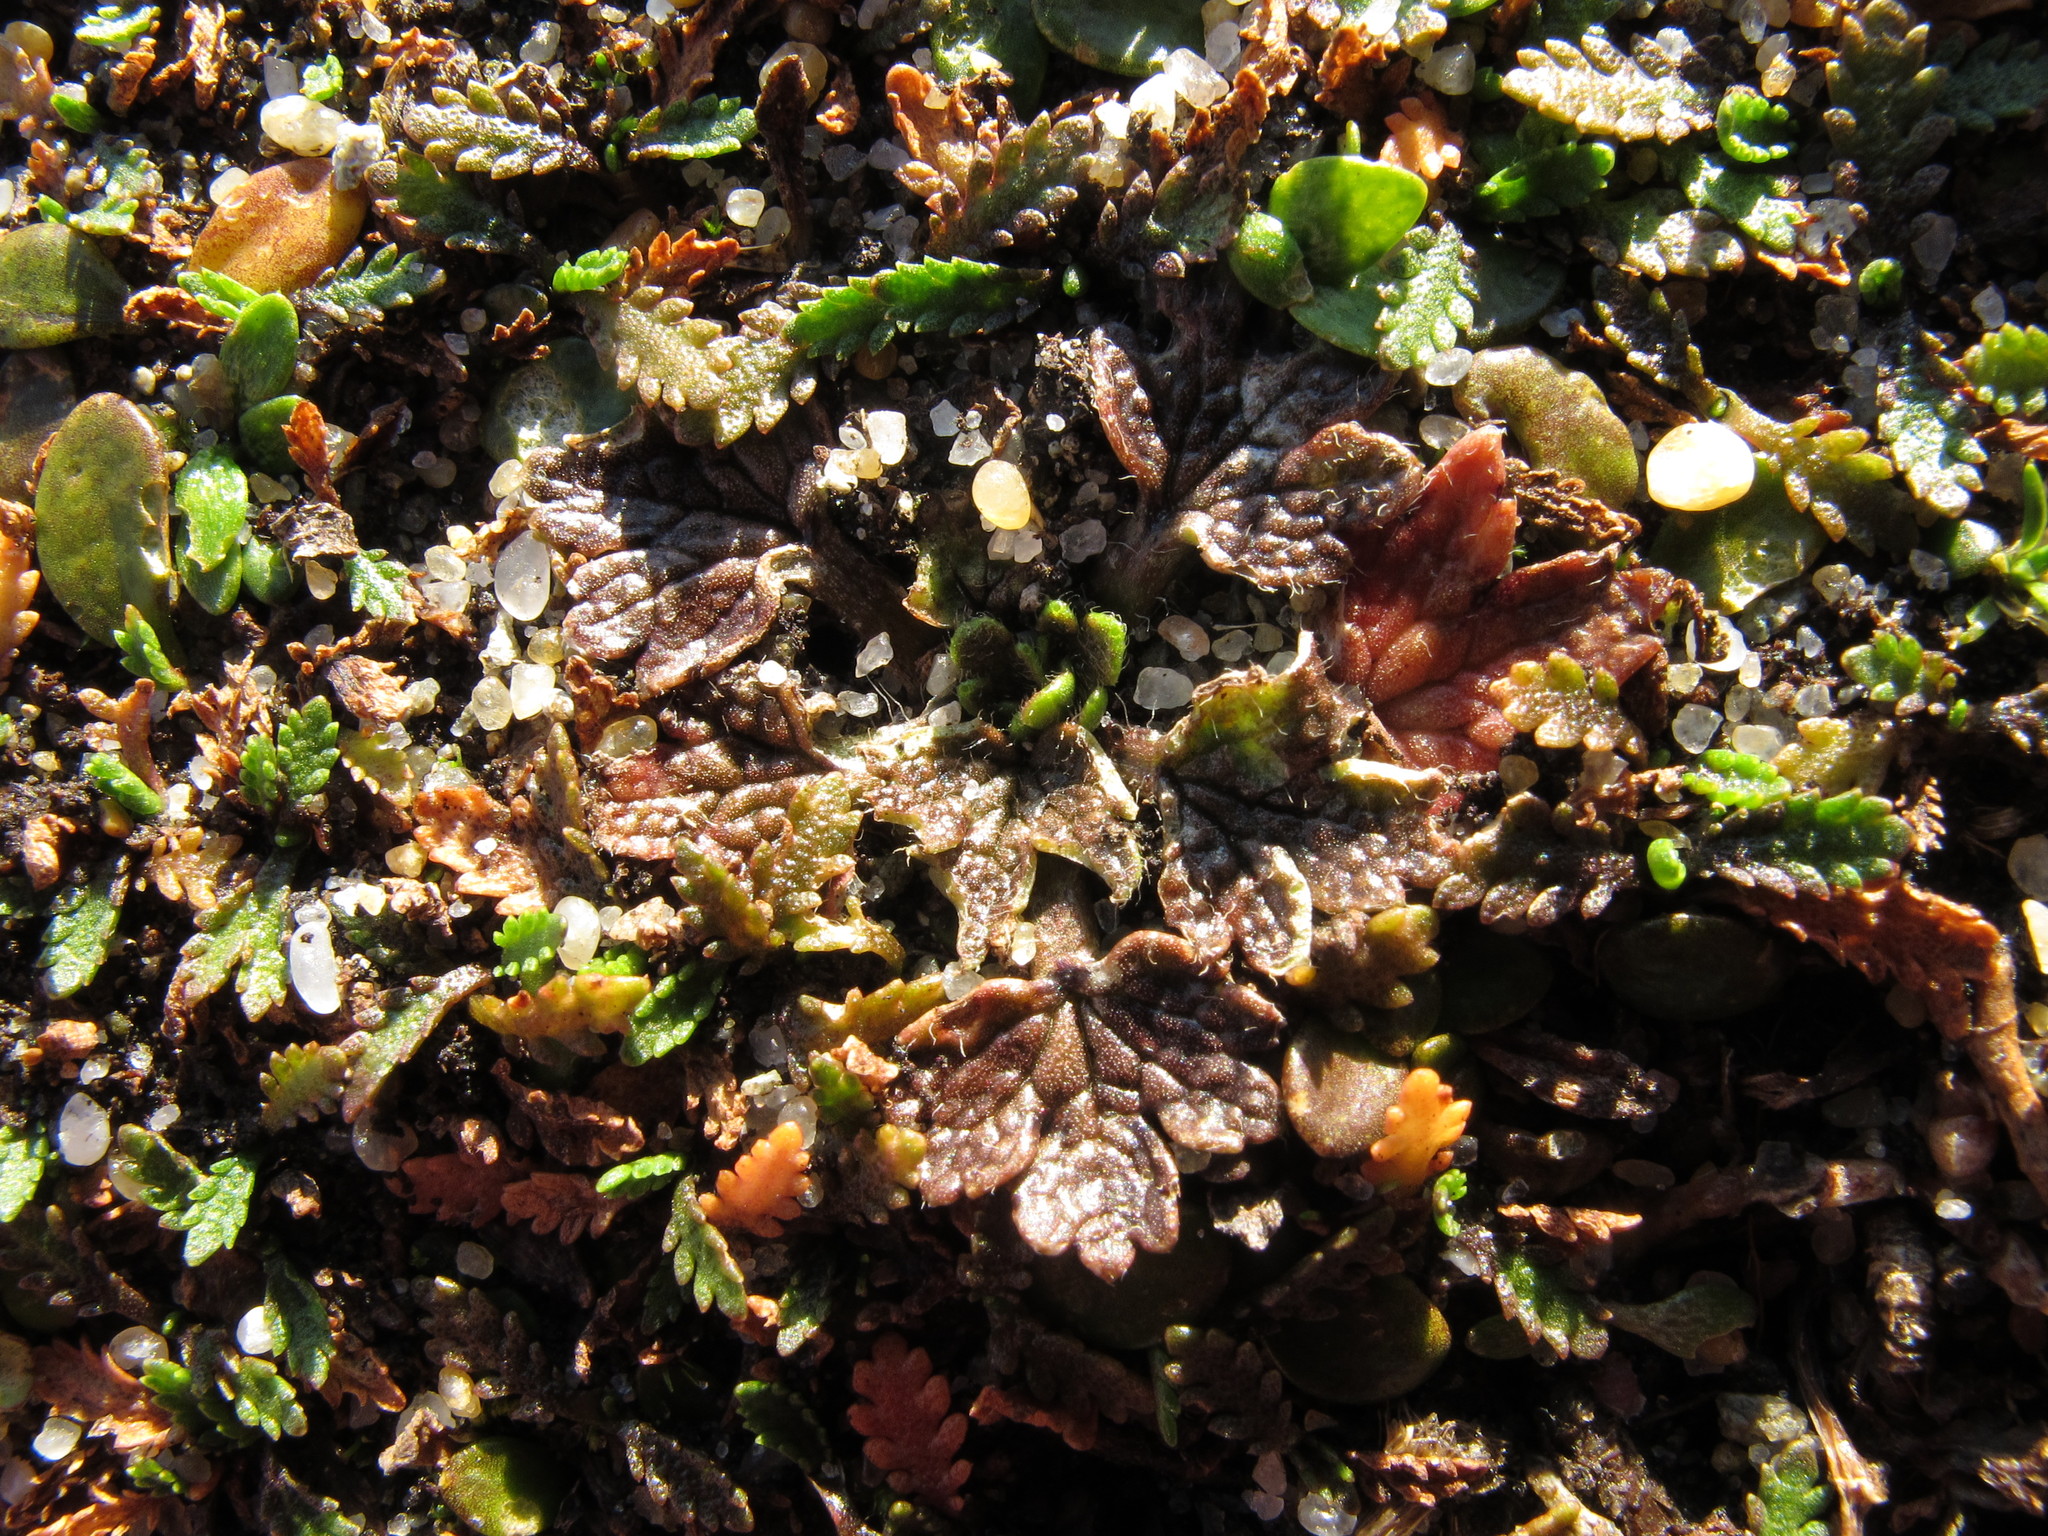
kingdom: Plantae
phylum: Tracheophyta
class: Magnoliopsida
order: Ranunculales
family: Ranunculaceae
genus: Ranunculus
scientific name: Ranunculus recens
